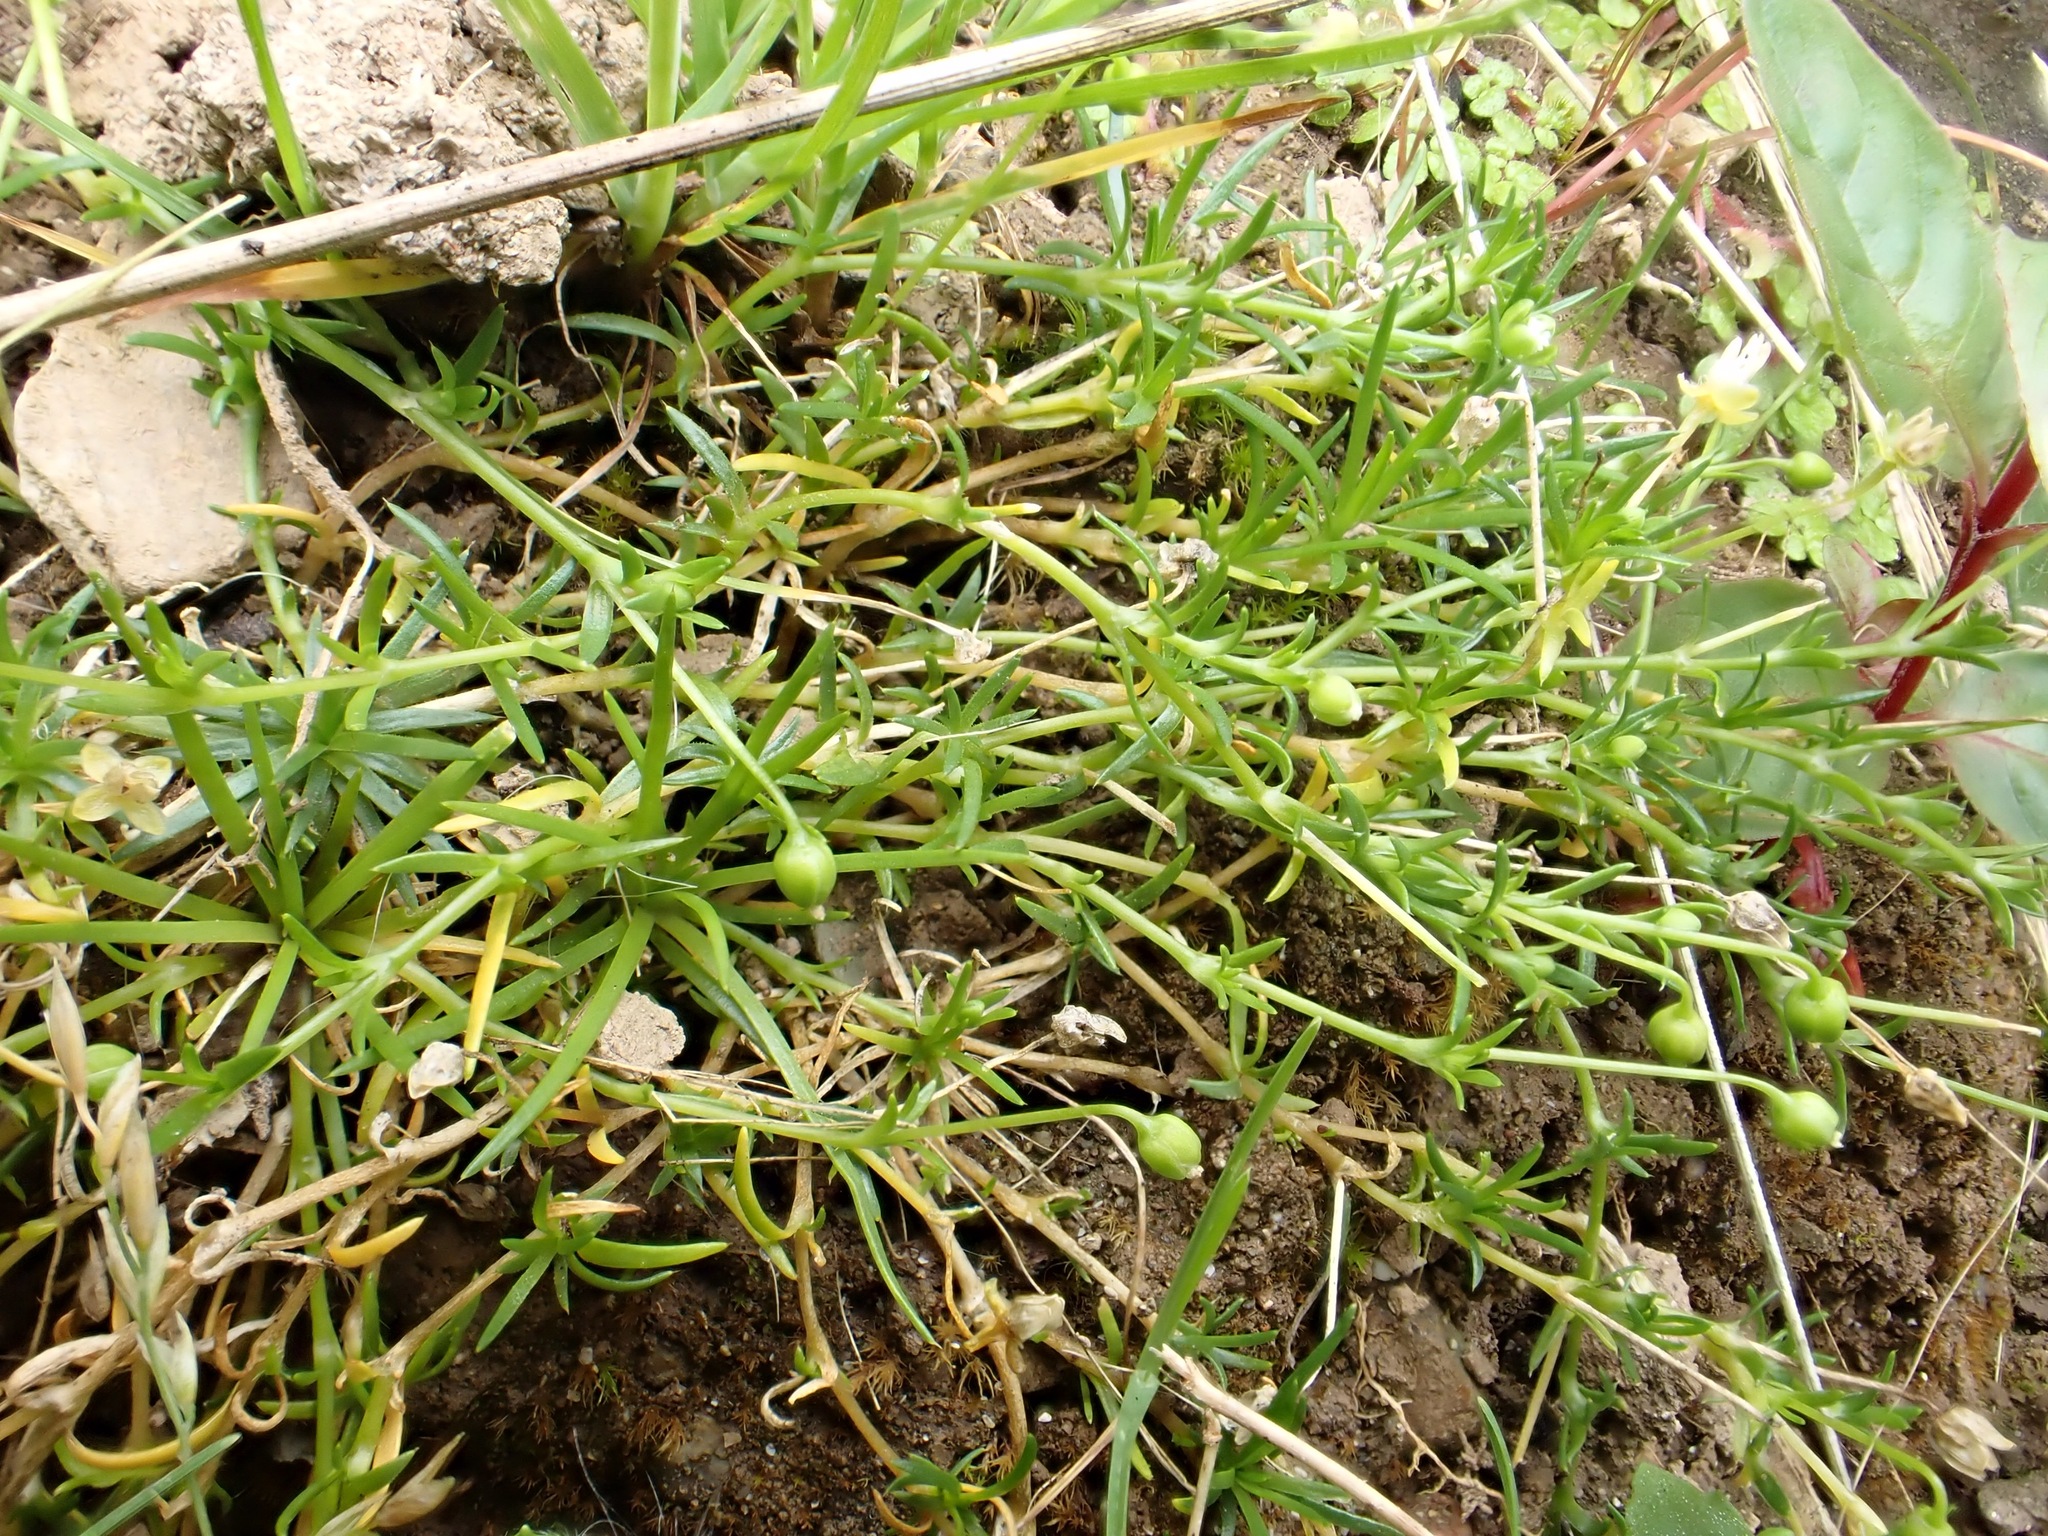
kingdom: Plantae
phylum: Tracheophyta
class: Magnoliopsida
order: Caryophyllales
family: Caryophyllaceae
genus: Sagina
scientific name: Sagina procumbens
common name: Procumbent pearlwort
